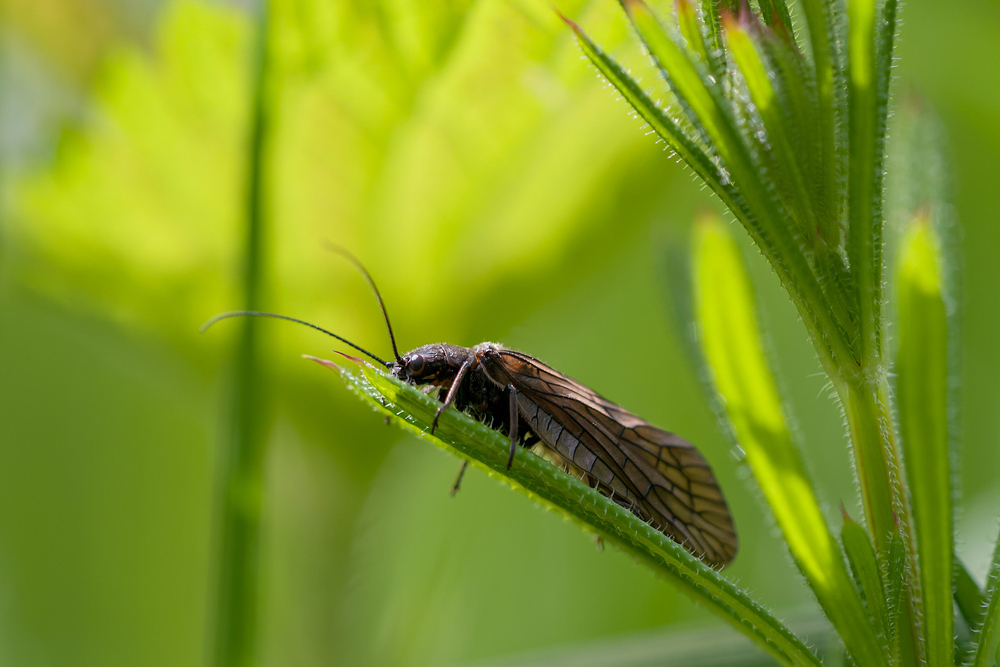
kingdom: Animalia
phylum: Arthropoda
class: Insecta
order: Megaloptera
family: Sialidae
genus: Sialis
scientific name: Sialis
